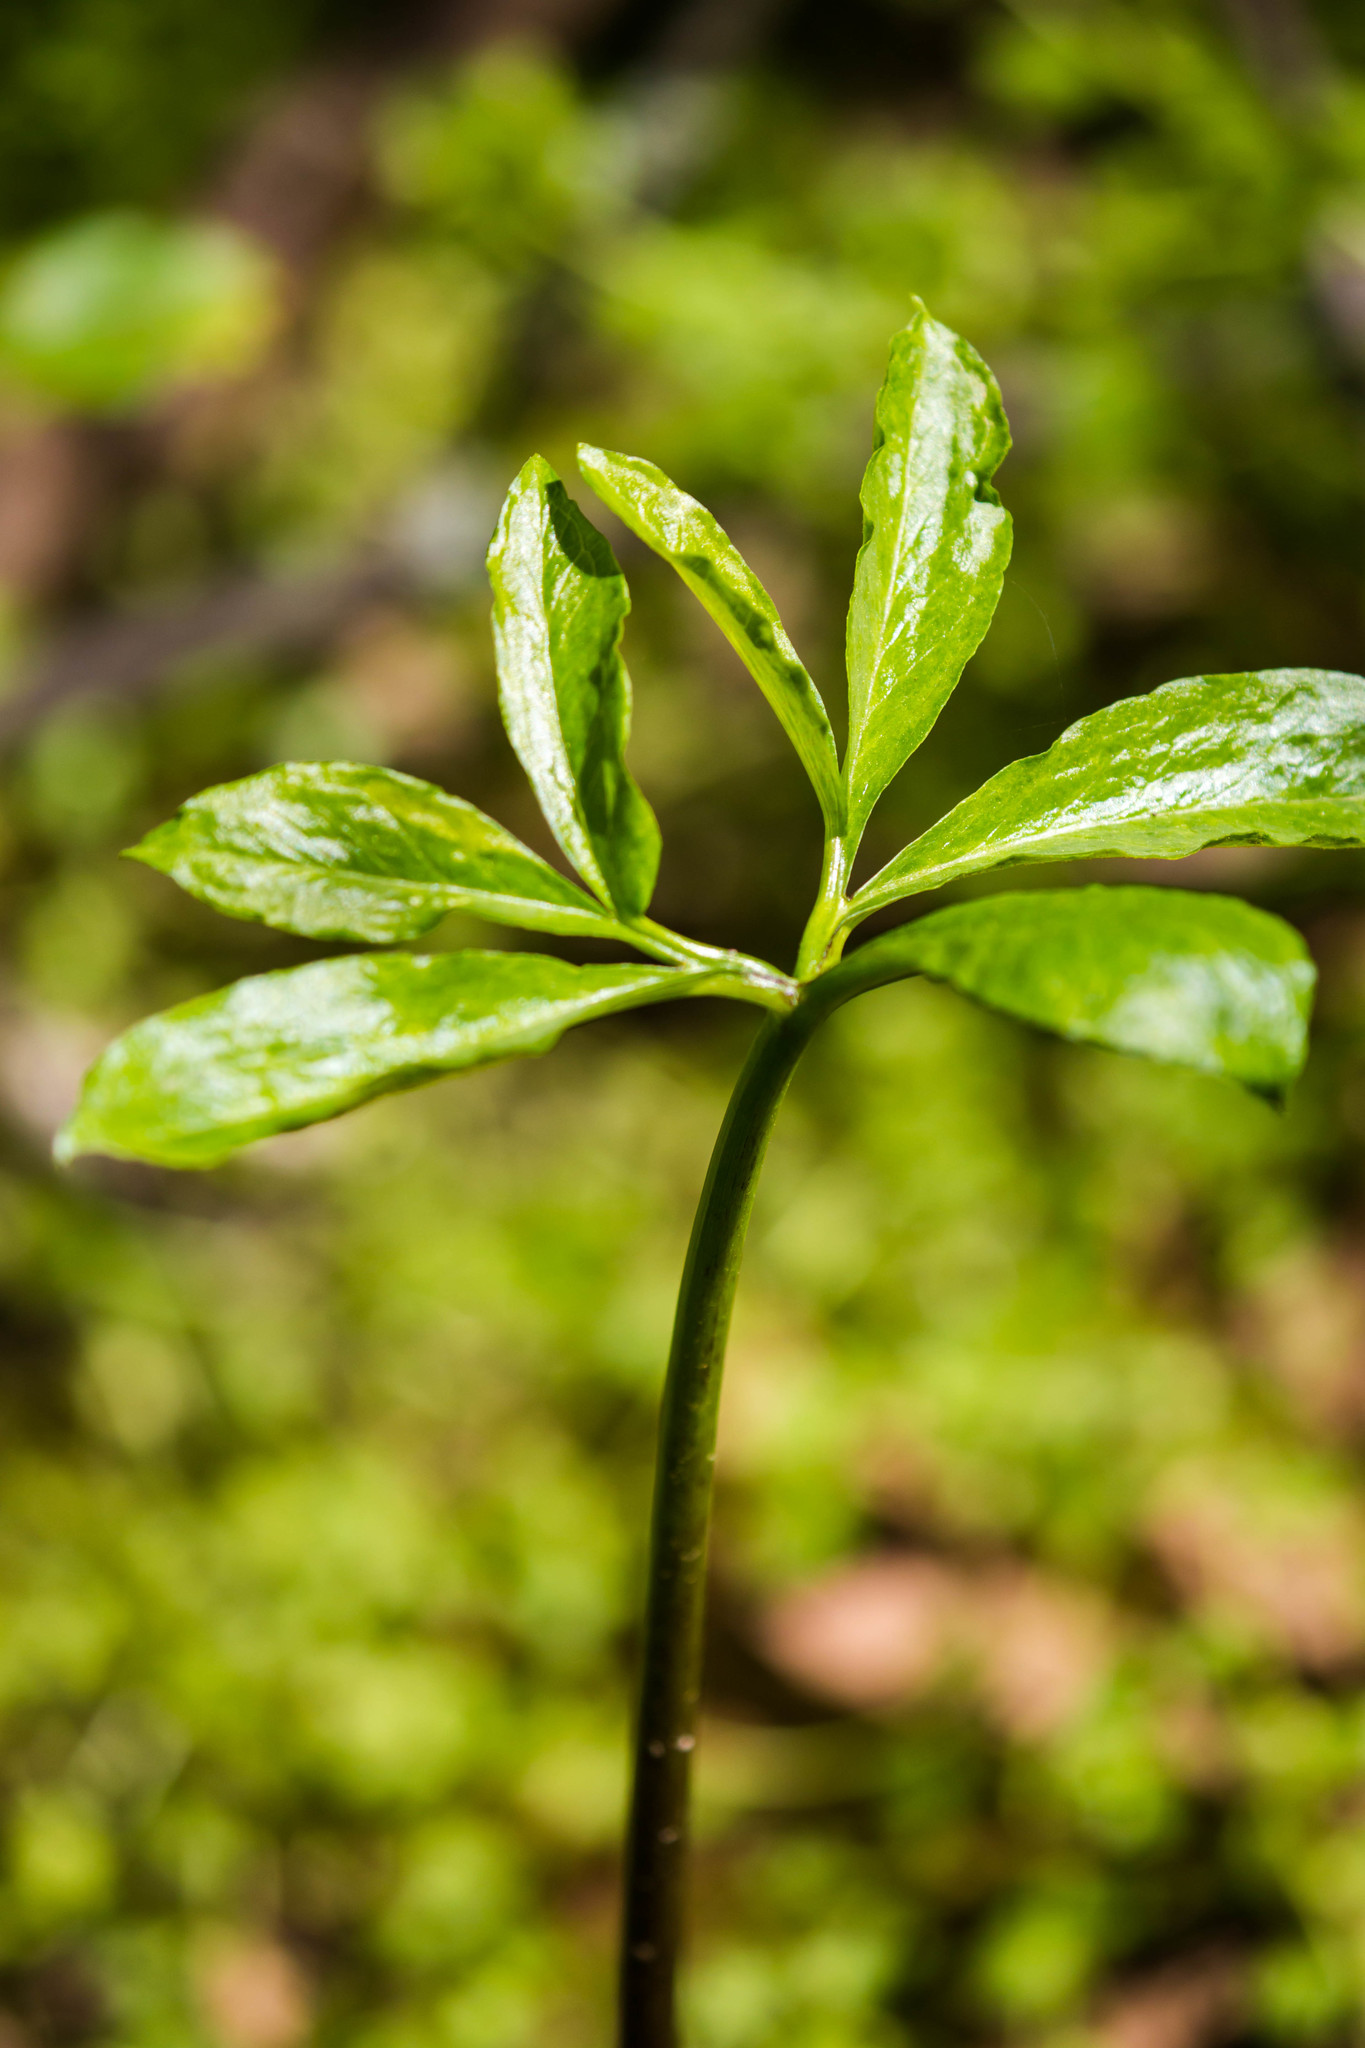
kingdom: Plantae
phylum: Tracheophyta
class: Liliopsida
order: Alismatales
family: Araceae
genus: Arisaema
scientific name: Arisaema dracontium
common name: Dragon-arum
